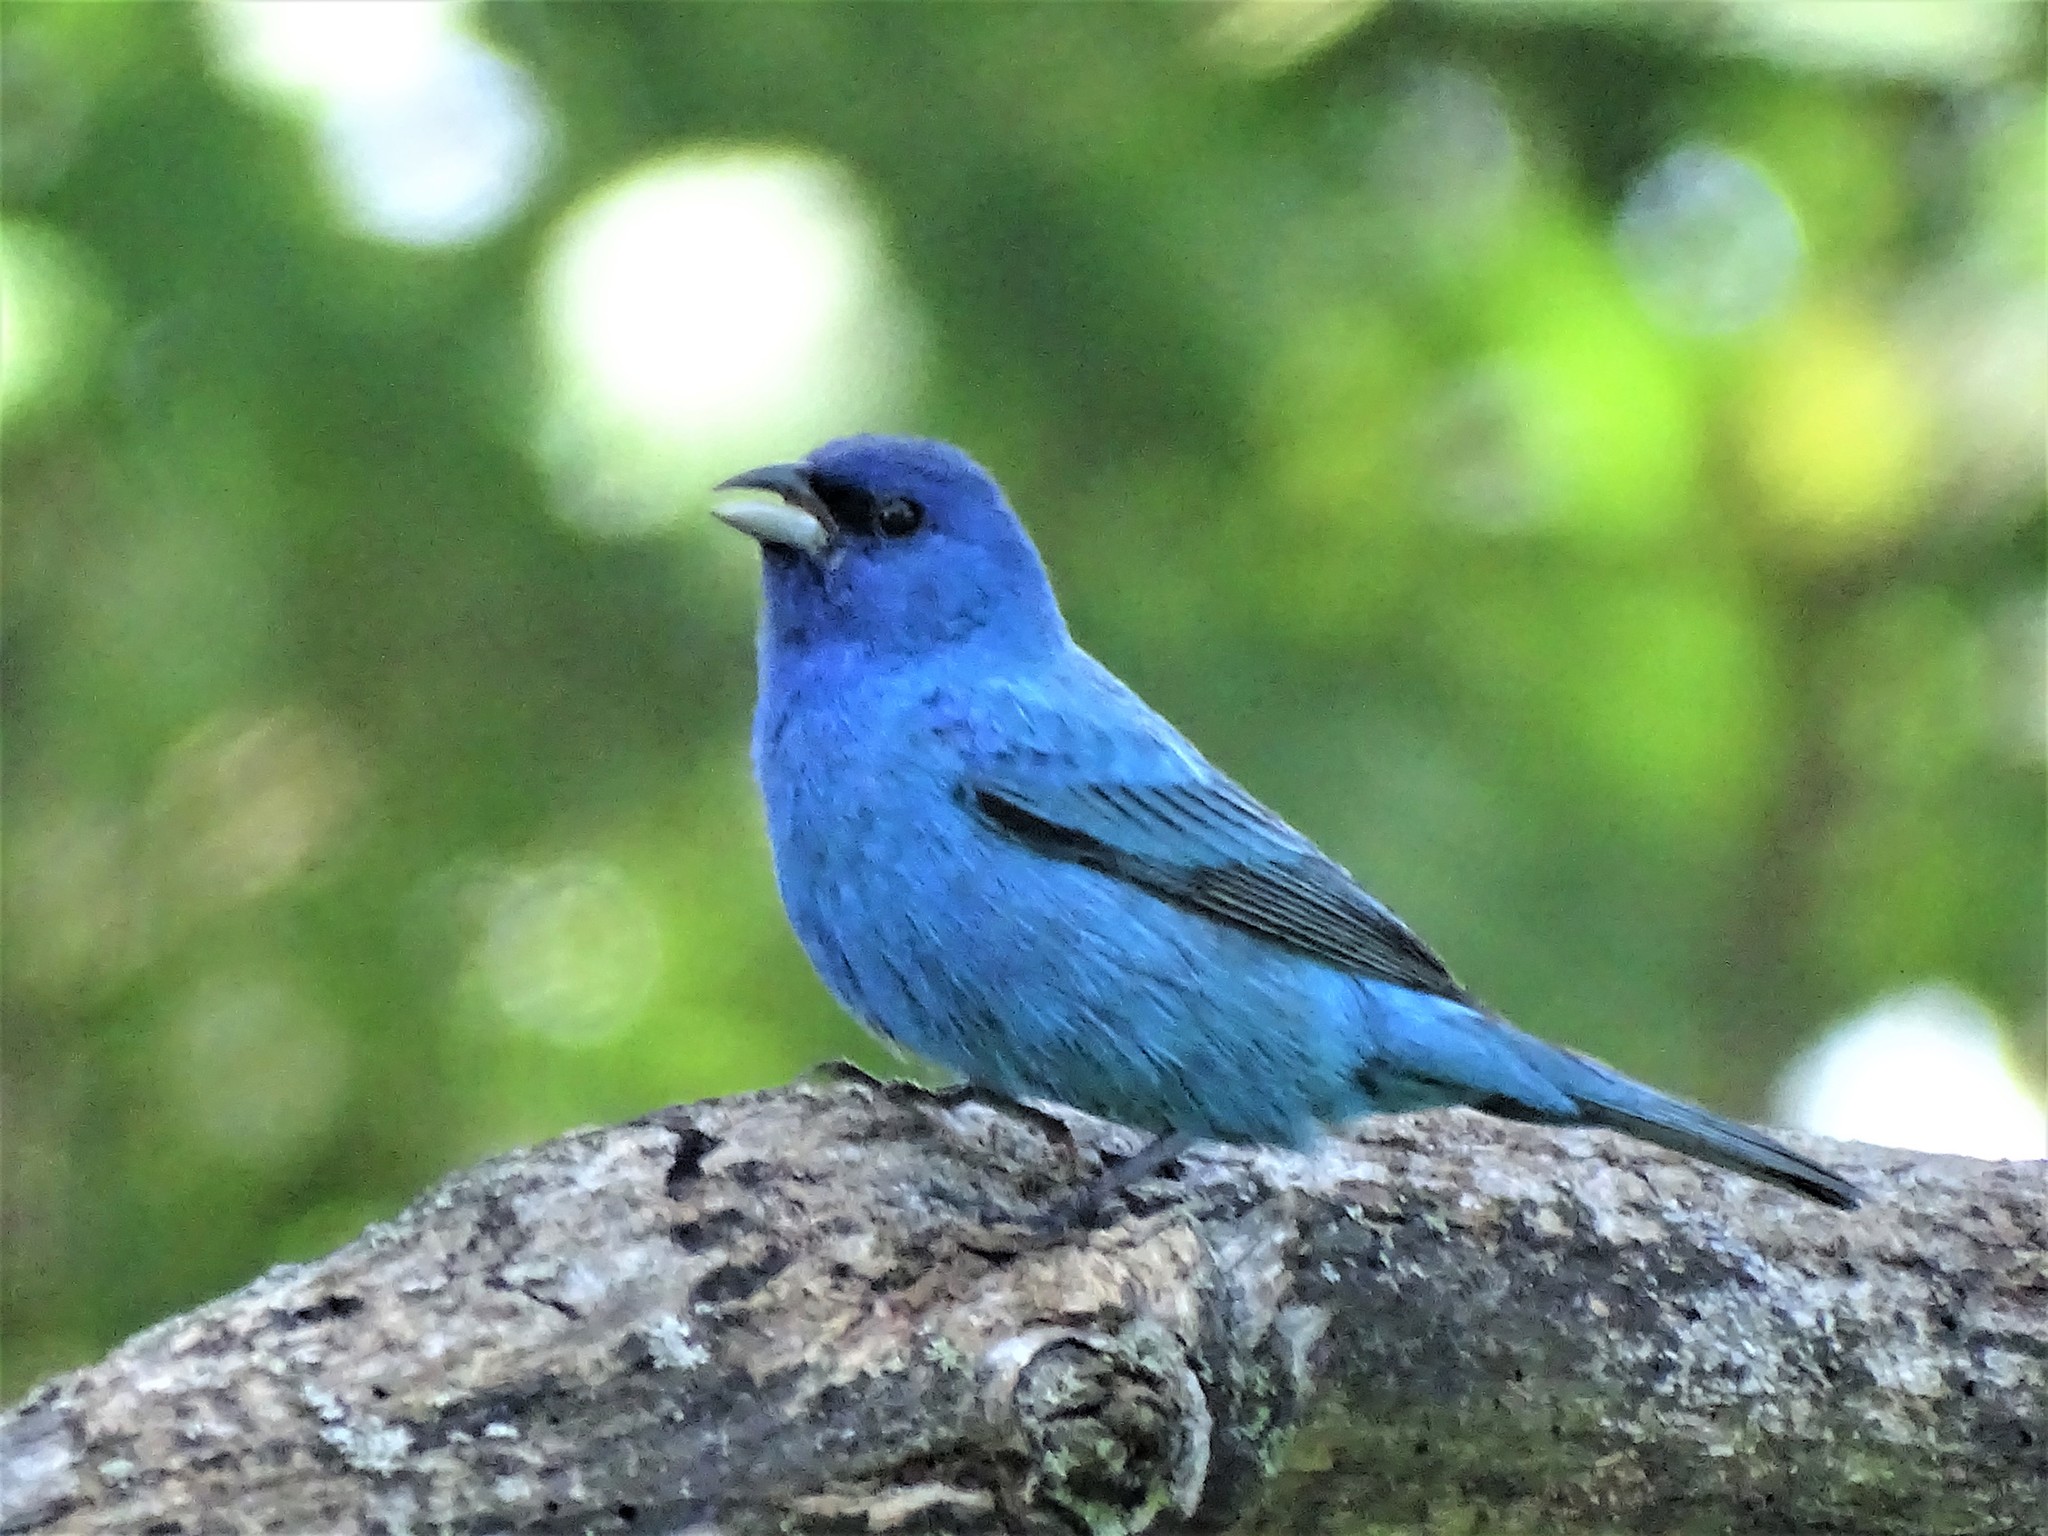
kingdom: Animalia
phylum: Chordata
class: Aves
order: Passeriformes
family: Cardinalidae
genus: Passerina
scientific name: Passerina cyanea
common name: Indigo bunting
